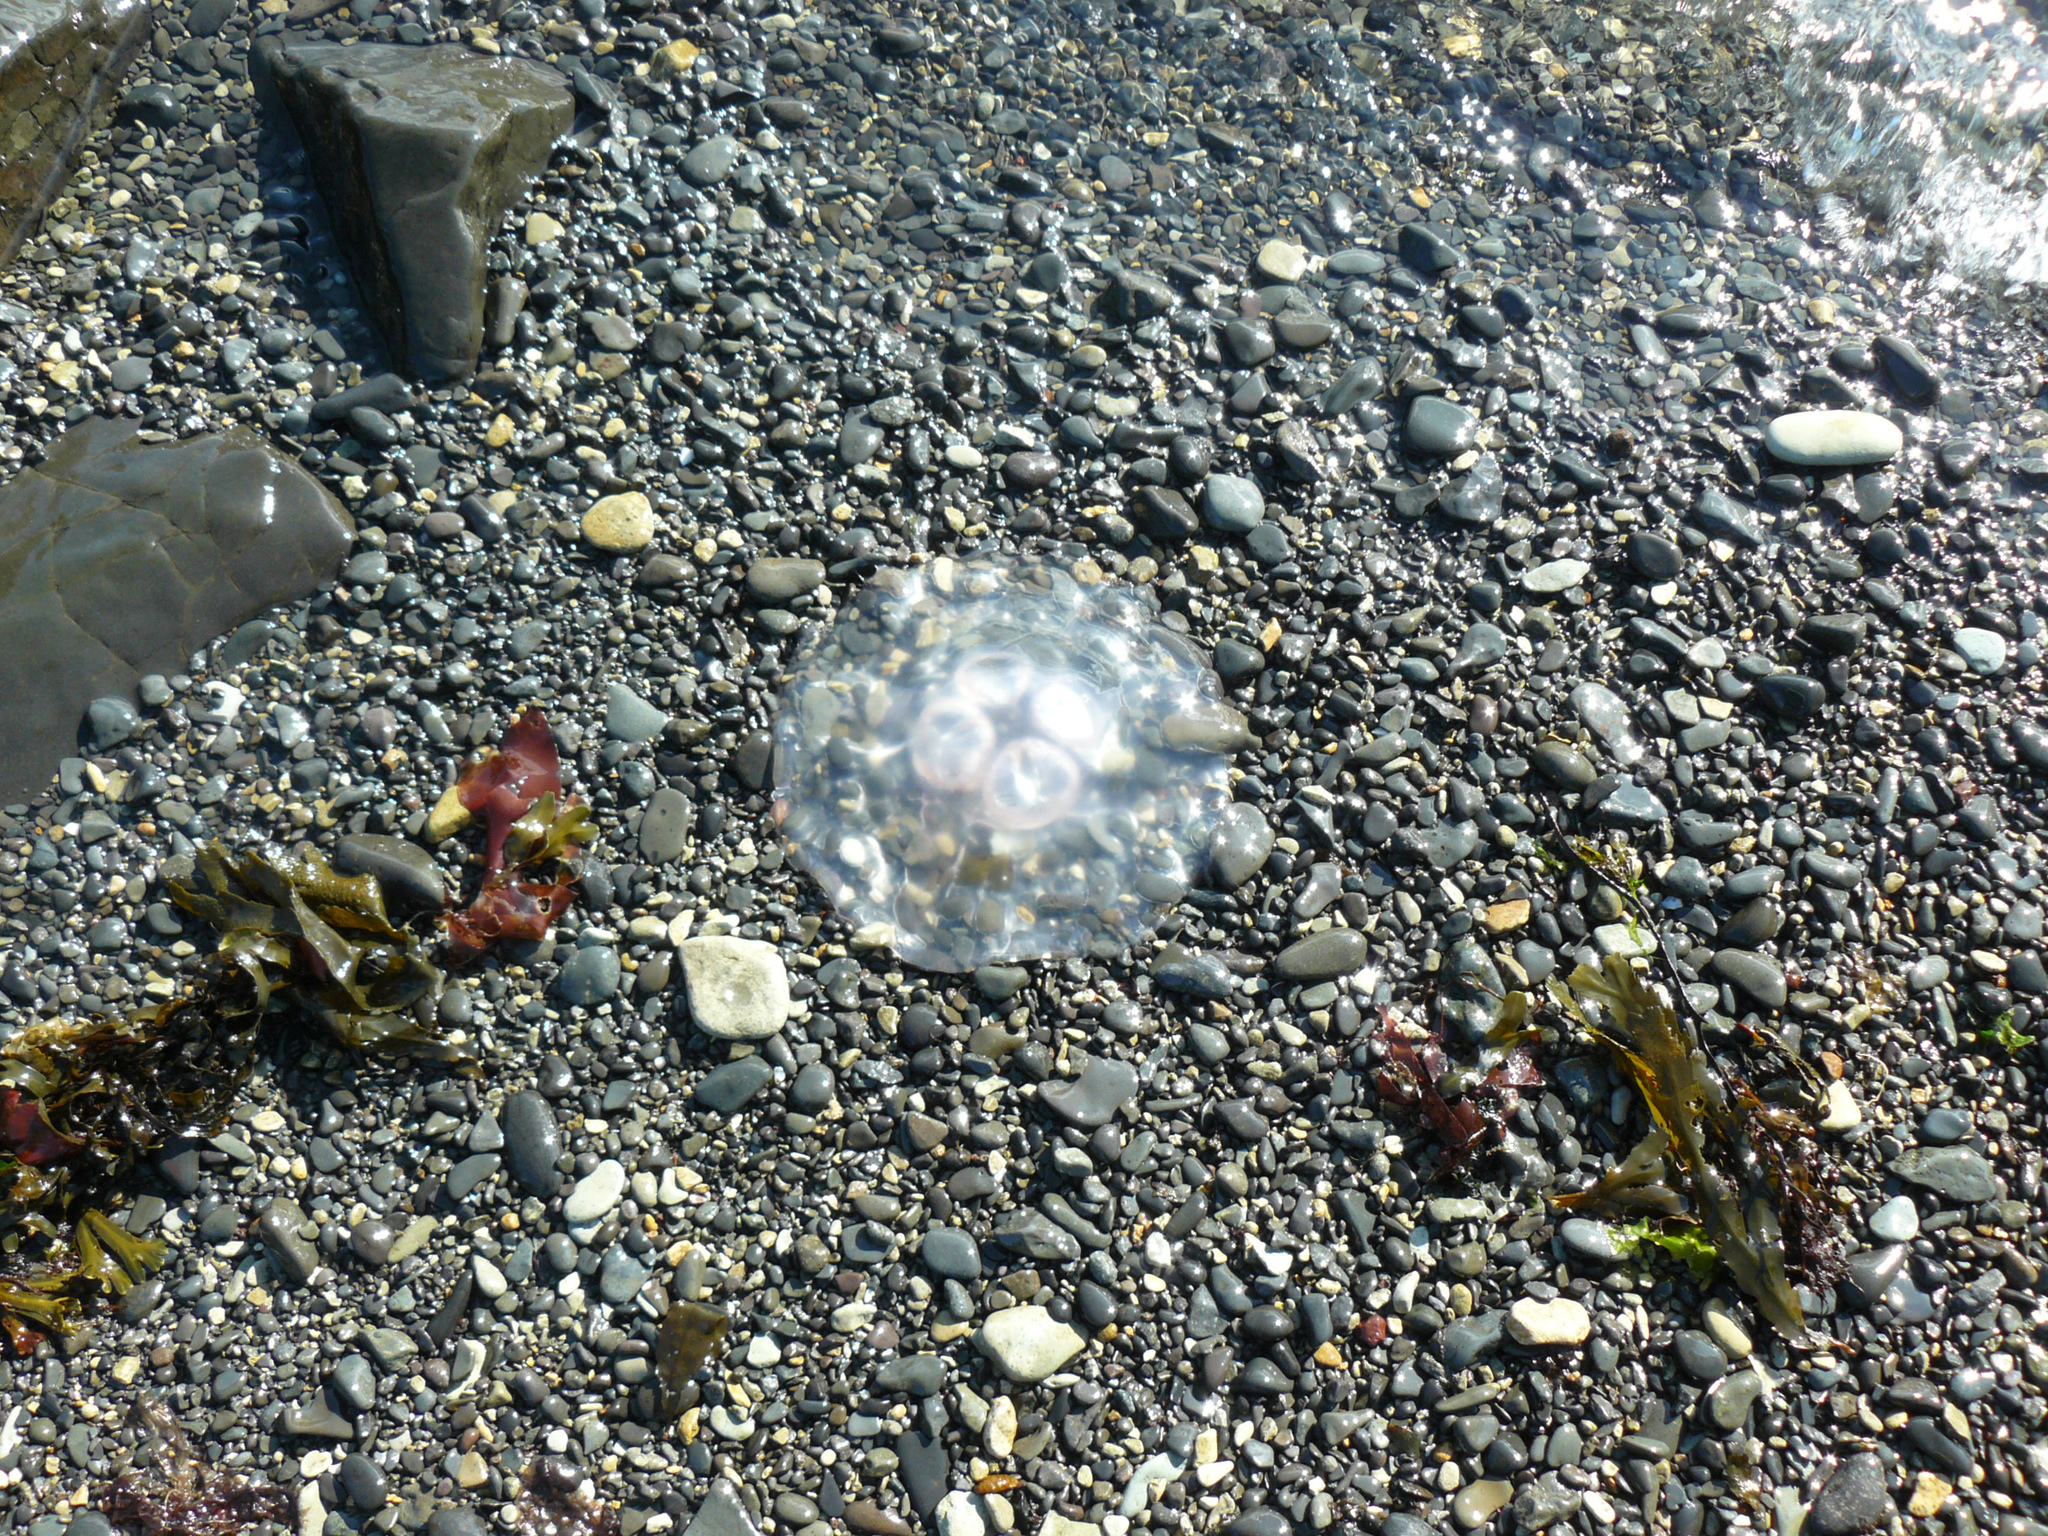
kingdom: Animalia
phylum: Cnidaria
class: Scyphozoa
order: Semaeostomeae
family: Ulmaridae
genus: Aurelia
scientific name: Aurelia aurita
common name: Moon jellyfish
